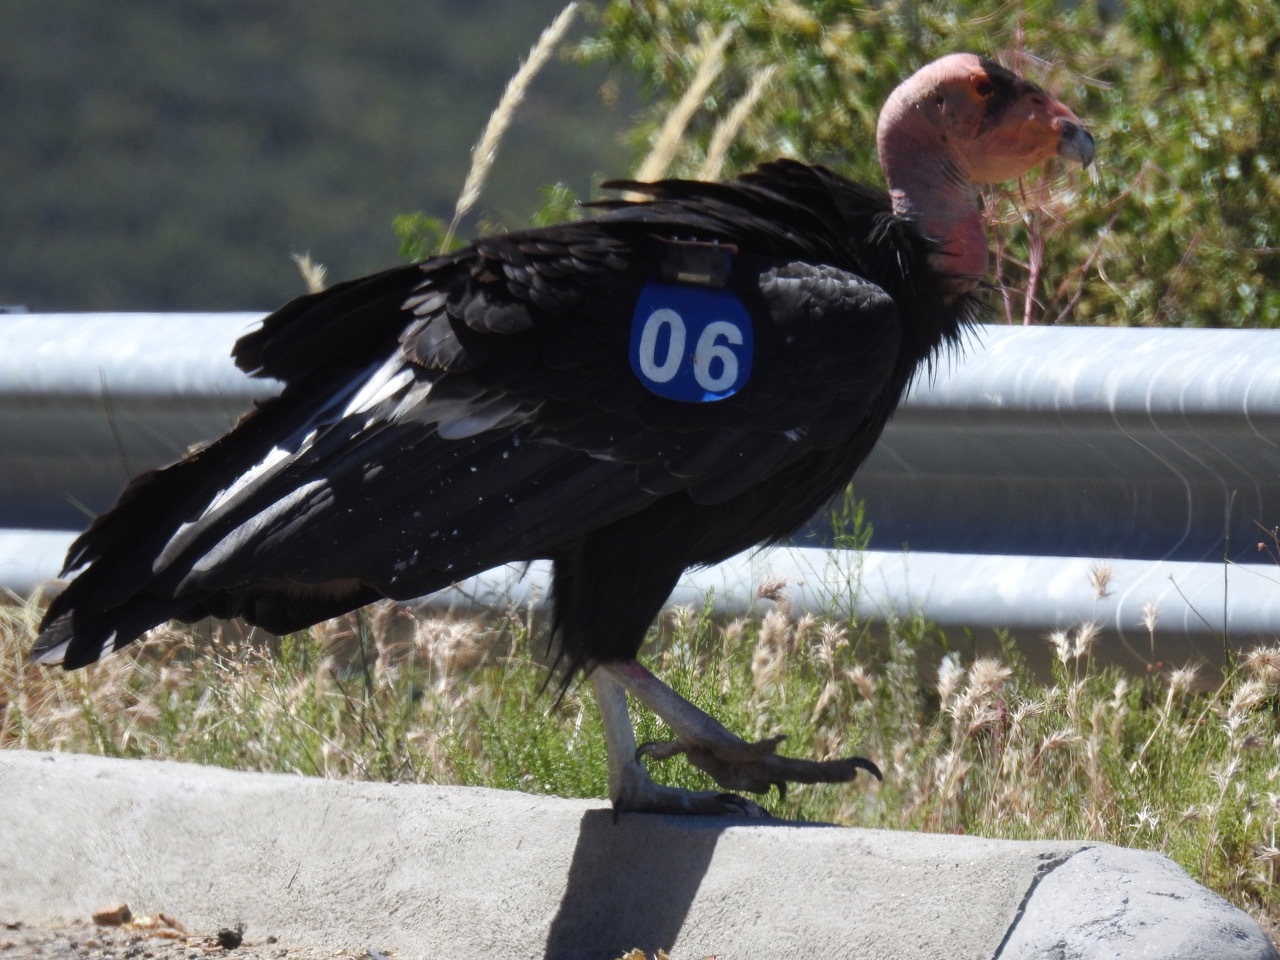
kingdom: Animalia
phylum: Chordata
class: Aves
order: Accipitriformes
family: Cathartidae
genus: Gymnogyps
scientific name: Gymnogyps californianus
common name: California condor
